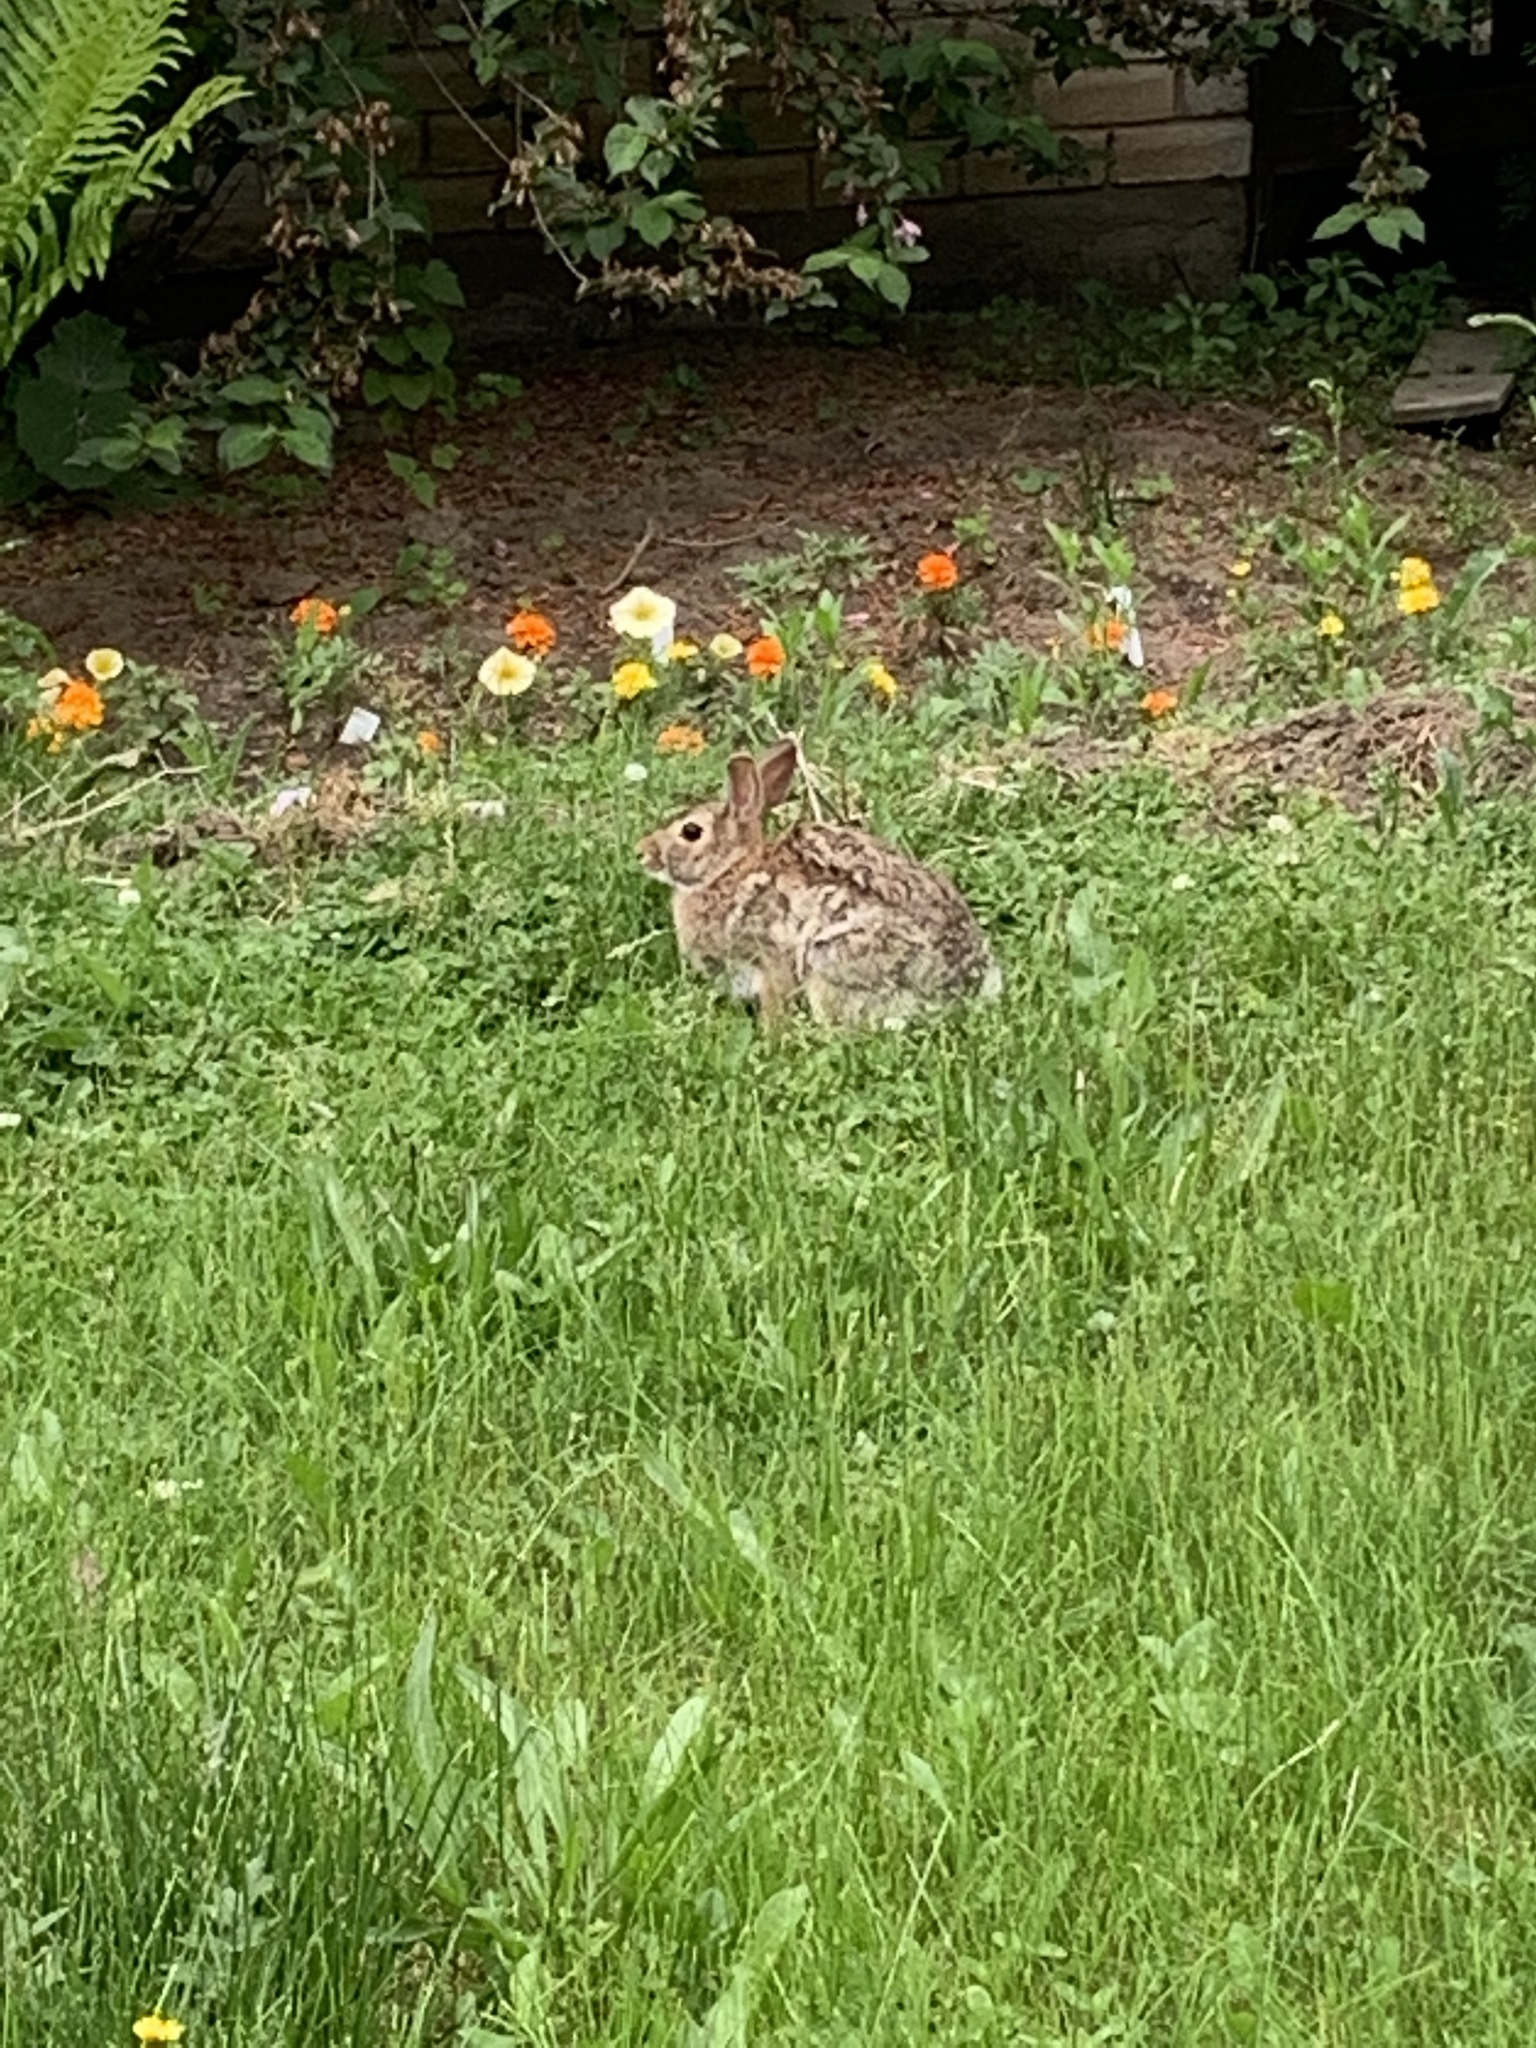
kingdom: Animalia
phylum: Chordata
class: Mammalia
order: Lagomorpha
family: Leporidae
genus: Sylvilagus
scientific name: Sylvilagus floridanus
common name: Eastern cottontail
